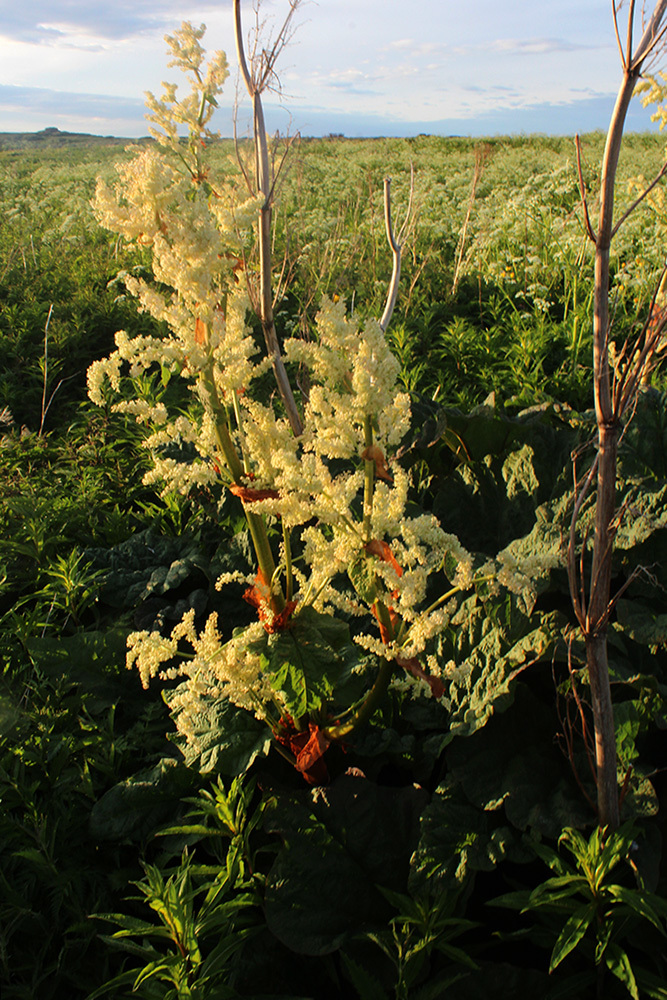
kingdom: Plantae
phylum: Tracheophyta
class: Magnoliopsida
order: Caryophyllales
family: Polygonaceae
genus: Rheum
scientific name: Rheum rhabarbarum
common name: Garden rhubarb
